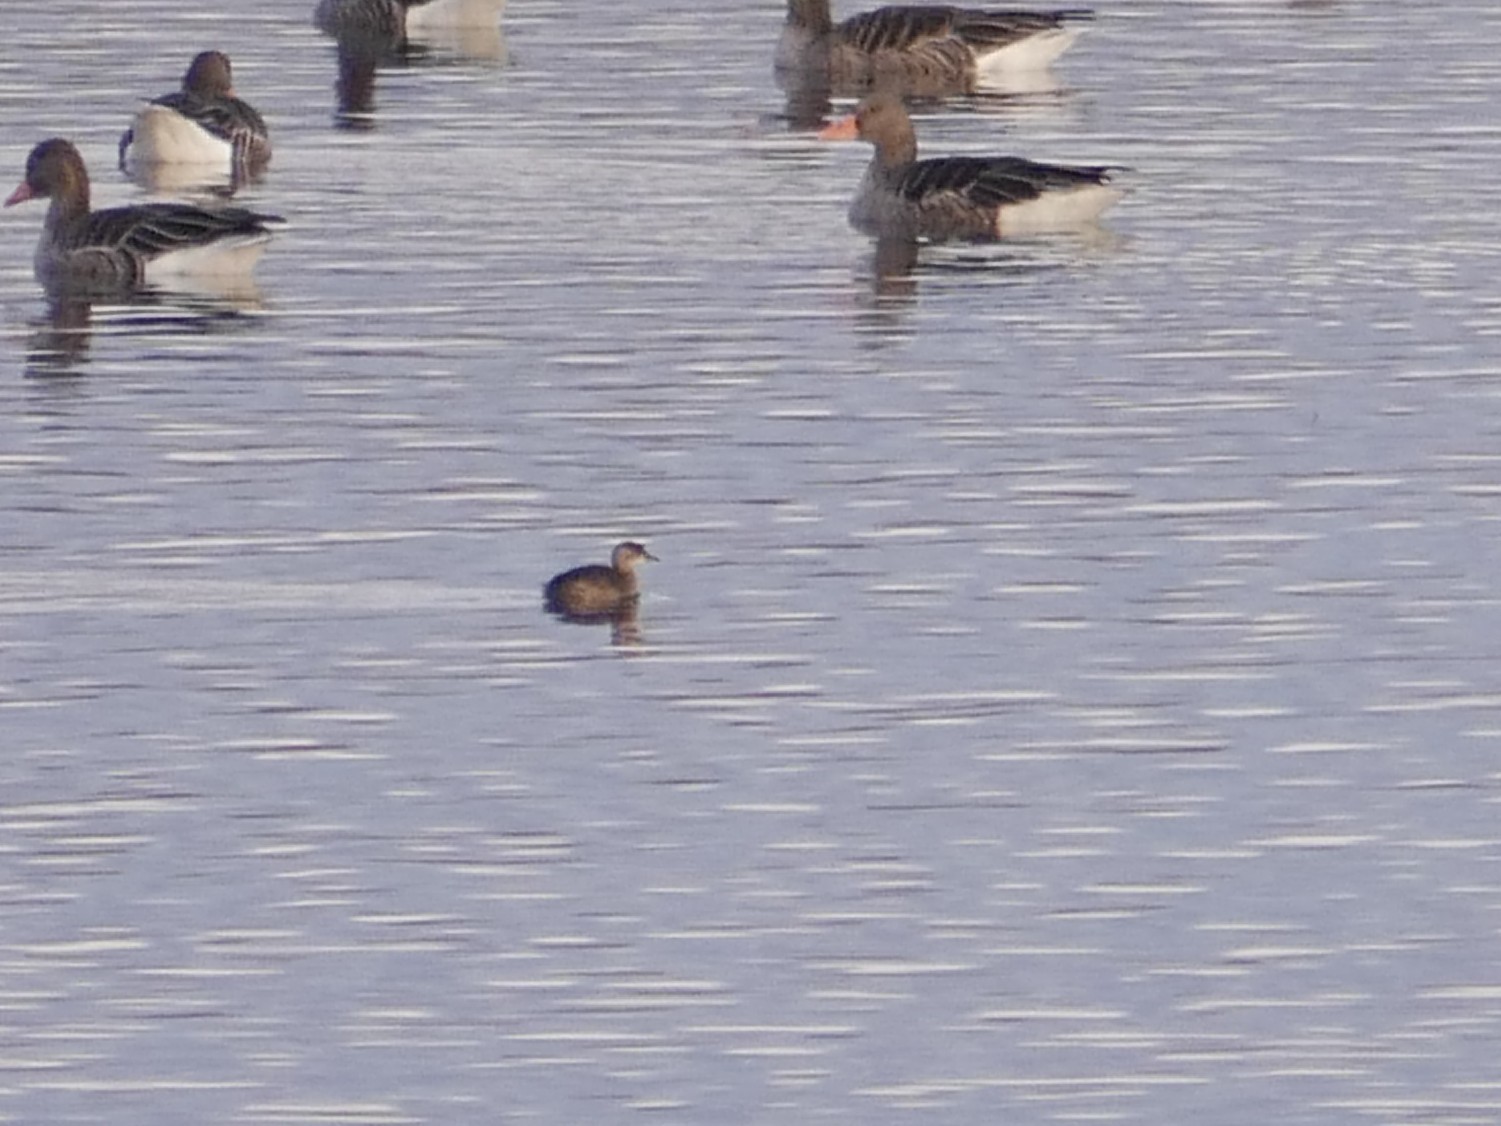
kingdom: Animalia
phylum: Chordata
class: Aves
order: Podicipediformes
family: Podicipedidae
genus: Tachybaptus
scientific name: Tachybaptus ruficollis
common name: Little grebe
